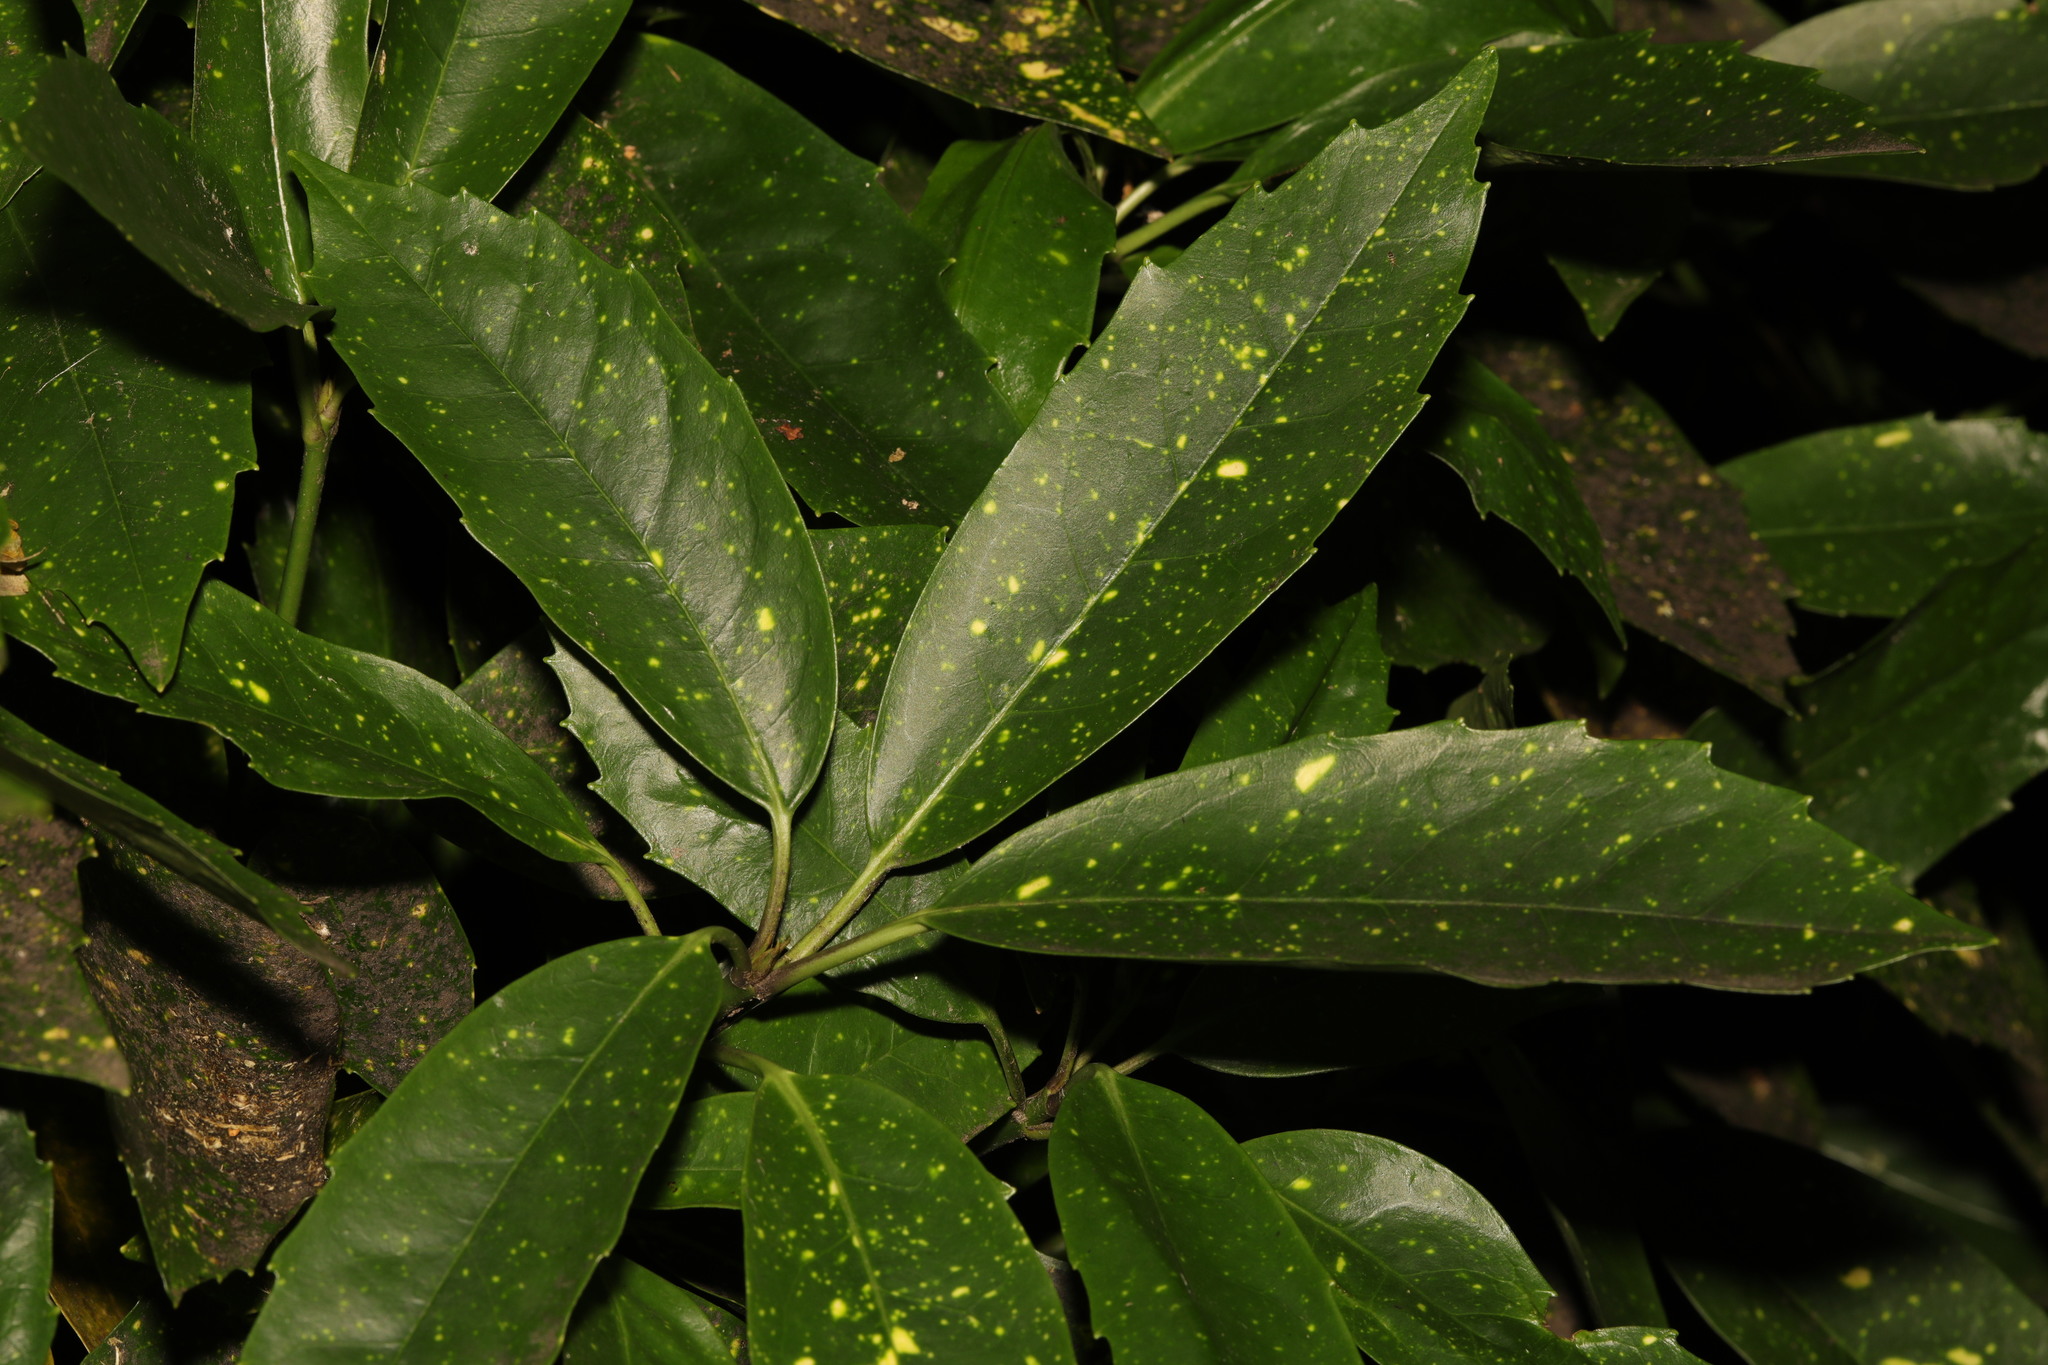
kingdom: Plantae
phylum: Tracheophyta
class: Magnoliopsida
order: Garryales
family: Garryaceae
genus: Aucuba
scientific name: Aucuba japonica
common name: Spotted-laurel
